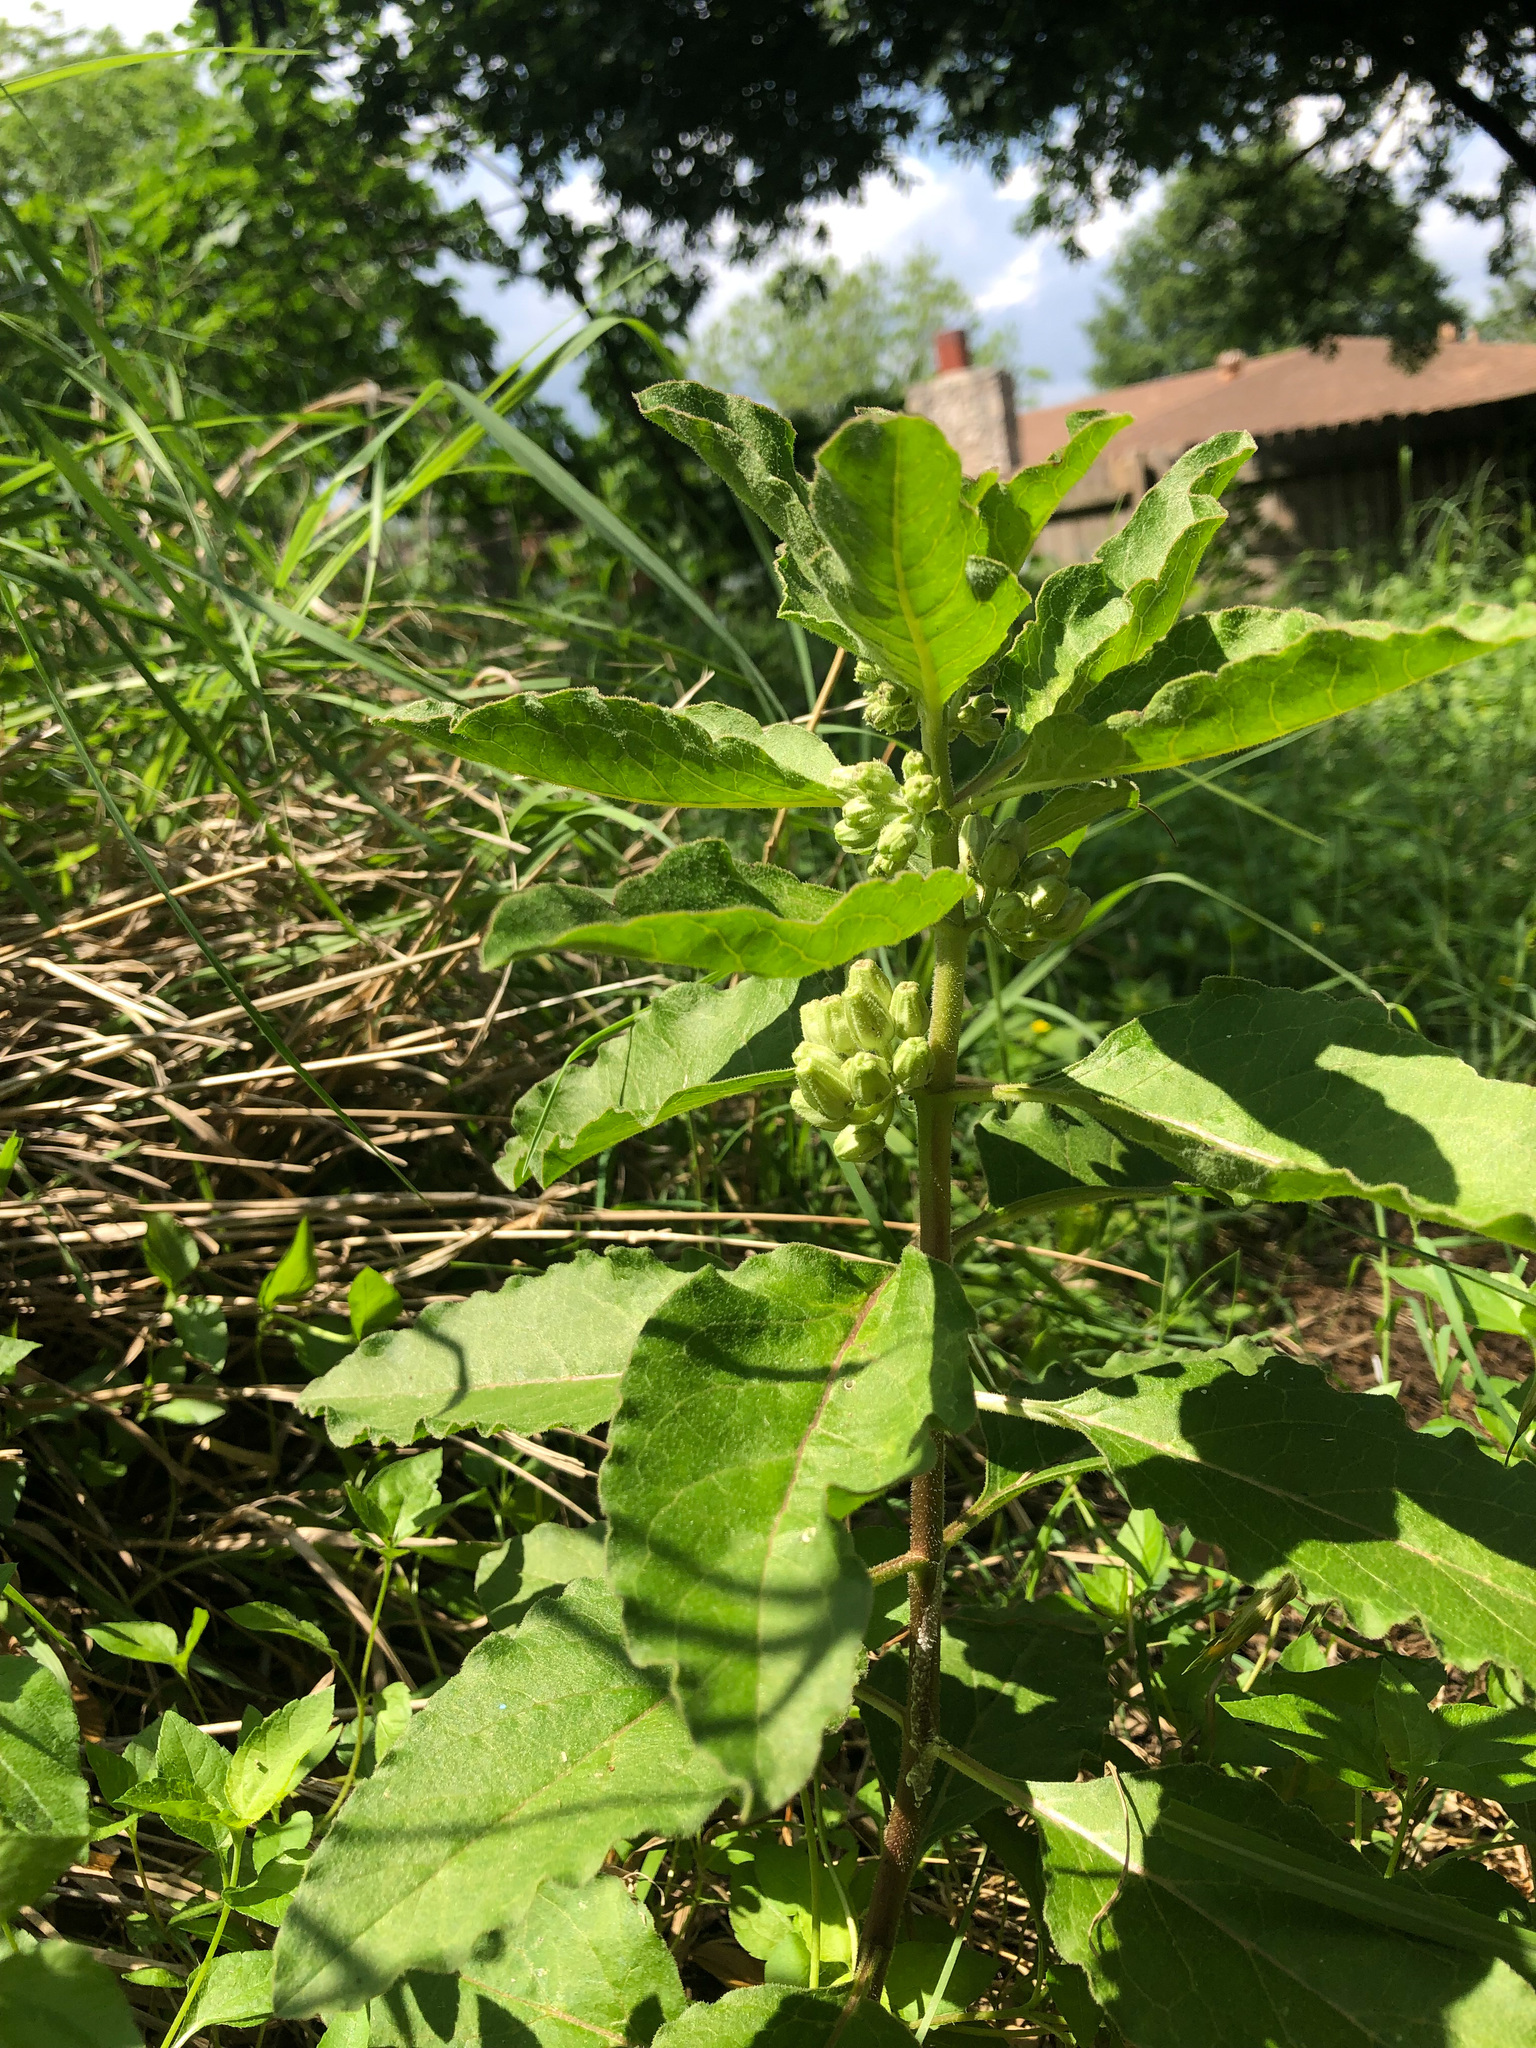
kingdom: Plantae
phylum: Tracheophyta
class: Magnoliopsida
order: Gentianales
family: Apocynaceae
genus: Asclepias
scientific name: Asclepias oenotheroides
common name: Zizotes milkweed
